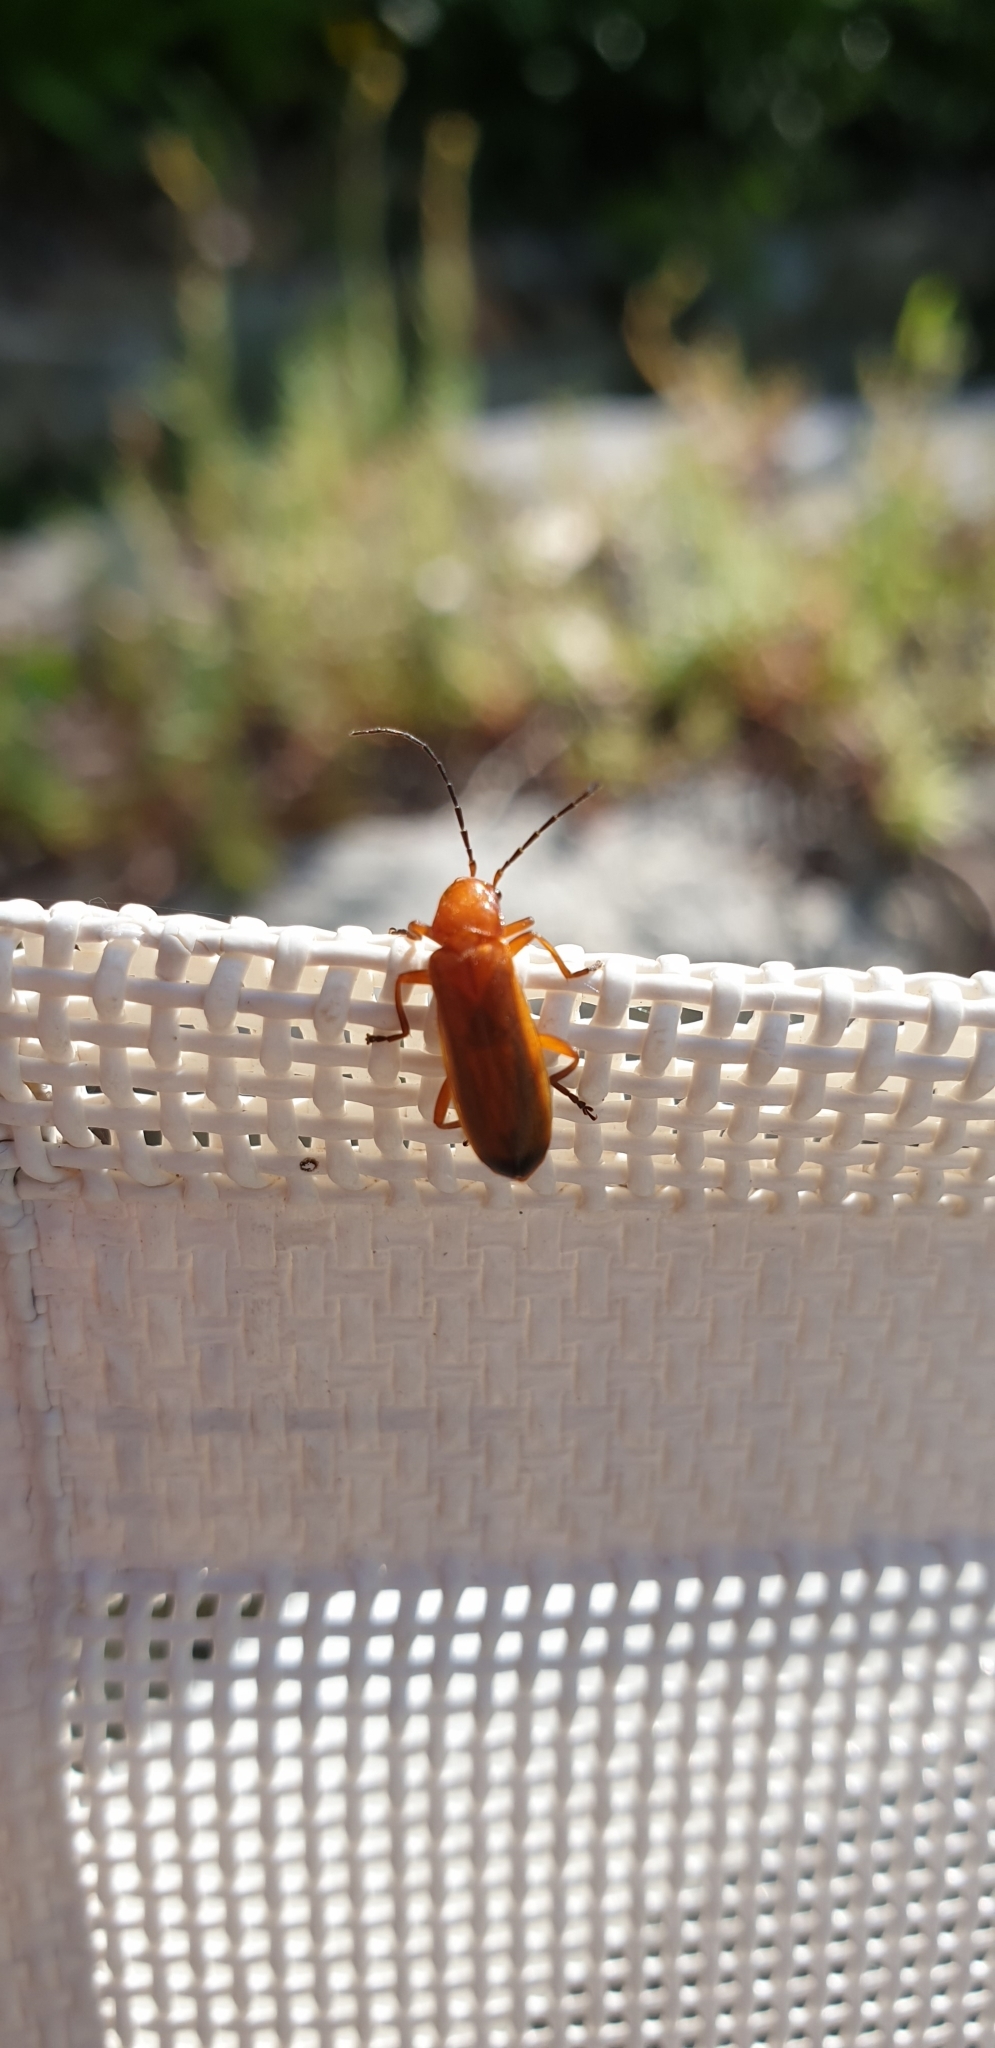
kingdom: Animalia
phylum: Arthropoda
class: Insecta
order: Coleoptera
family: Cantharidae
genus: Rhagonycha
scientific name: Rhagonycha fulva
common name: Common red soldier beetle
